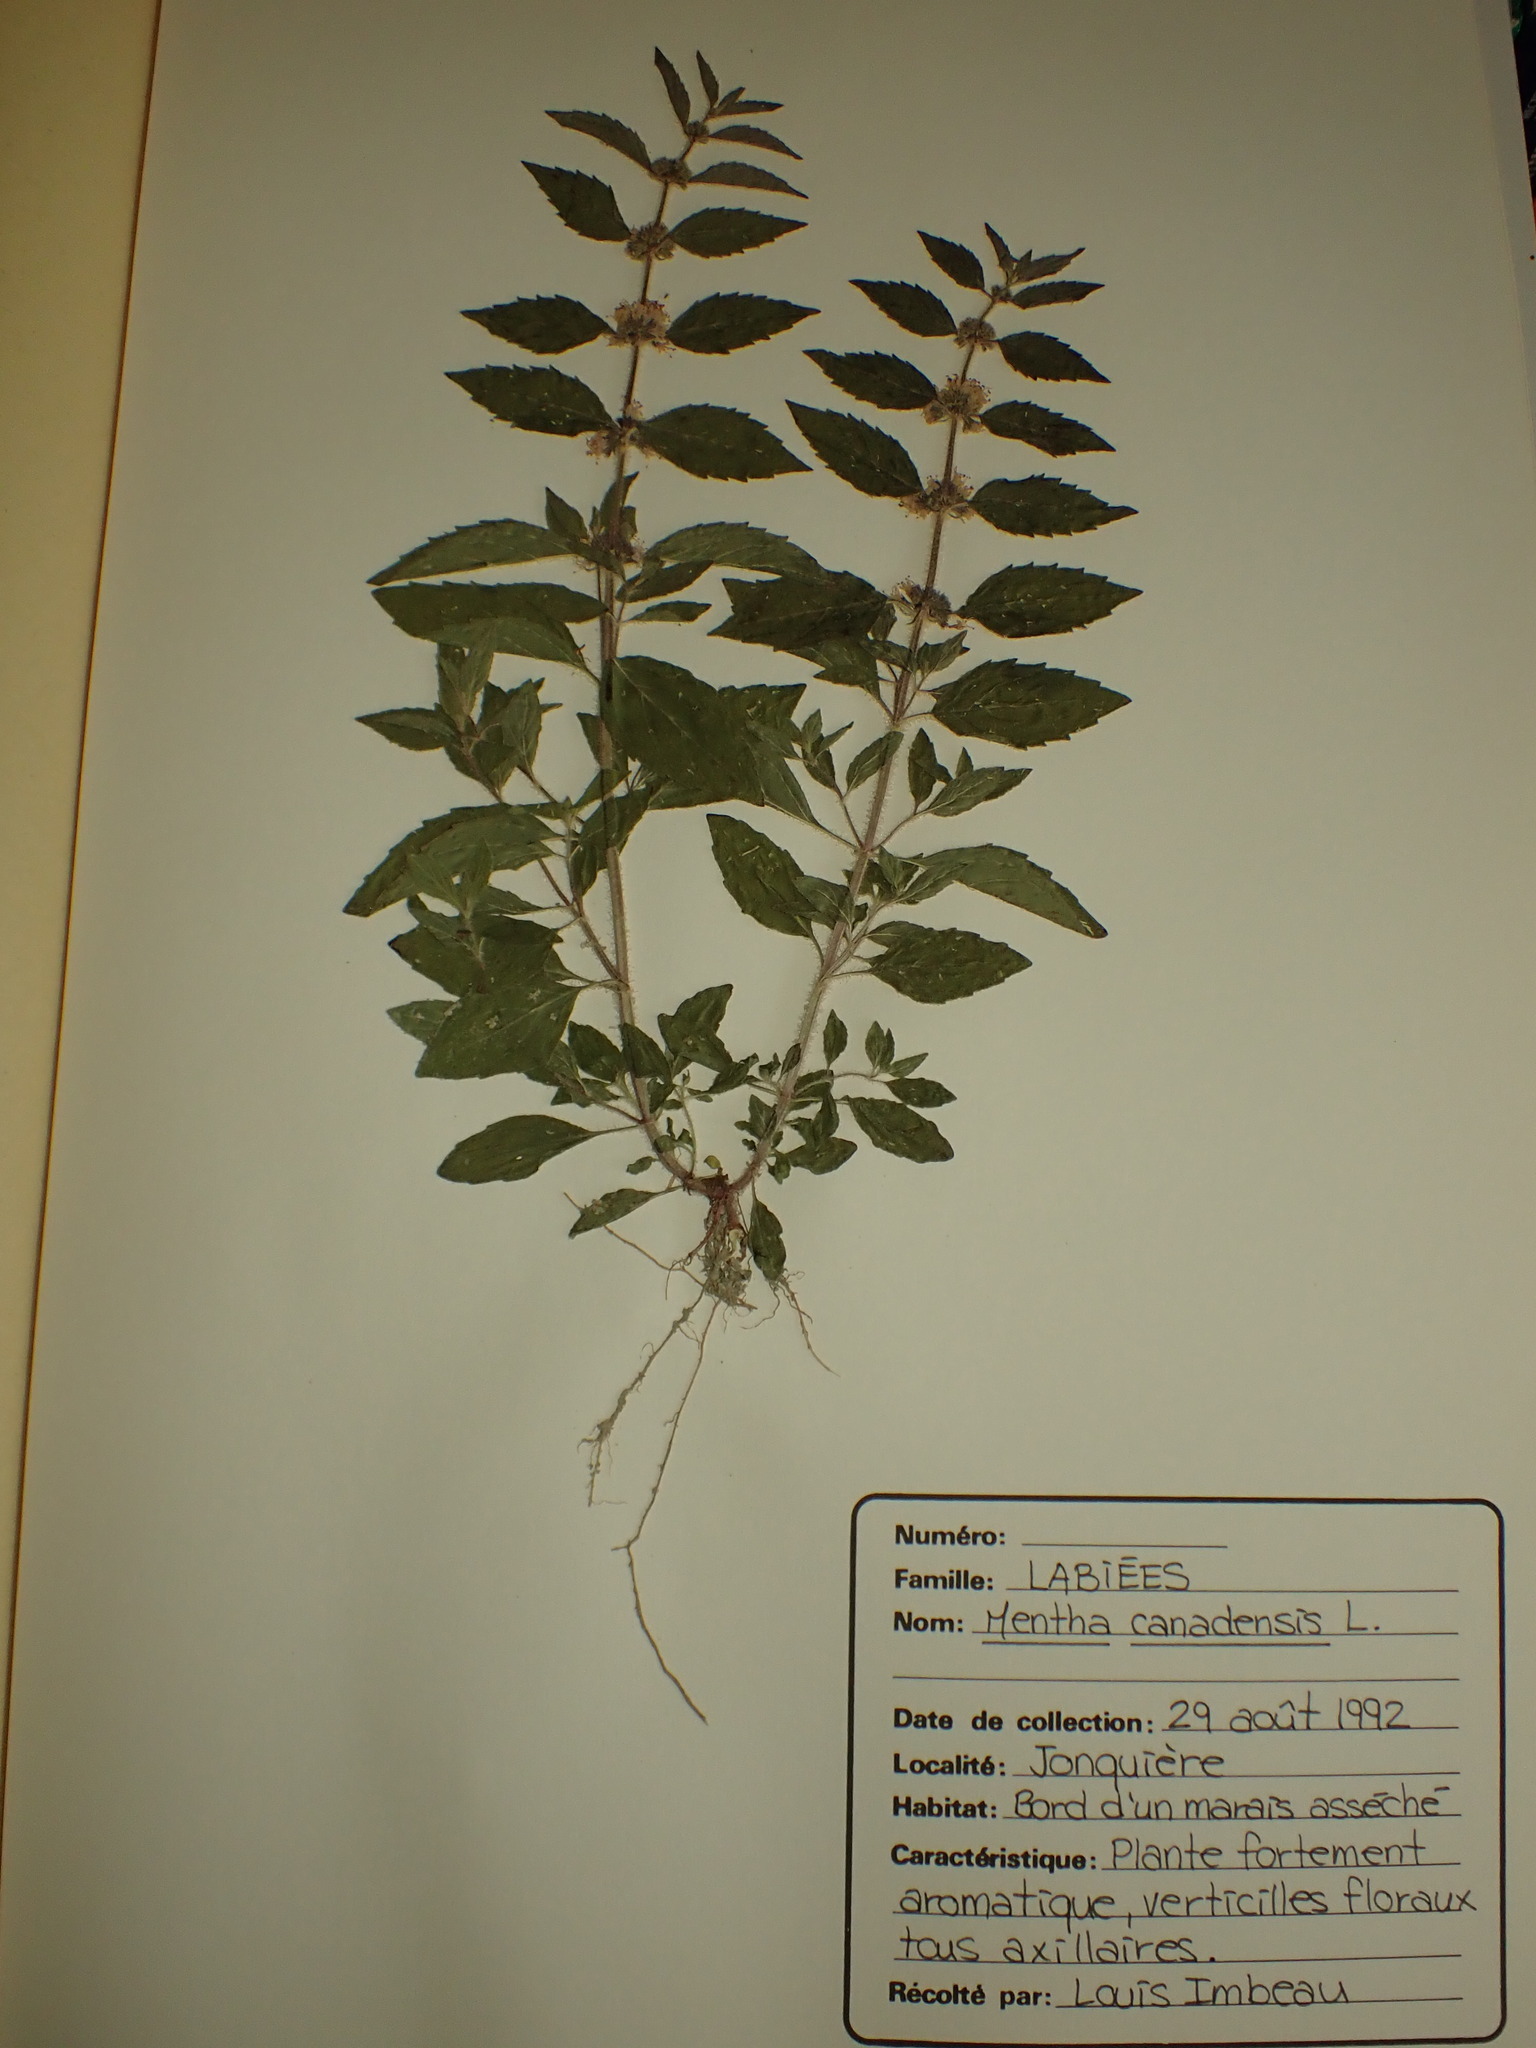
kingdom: Plantae
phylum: Tracheophyta
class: Magnoliopsida
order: Lamiales
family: Lamiaceae
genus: Mentha
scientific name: Mentha canadensis
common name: American corn mint
